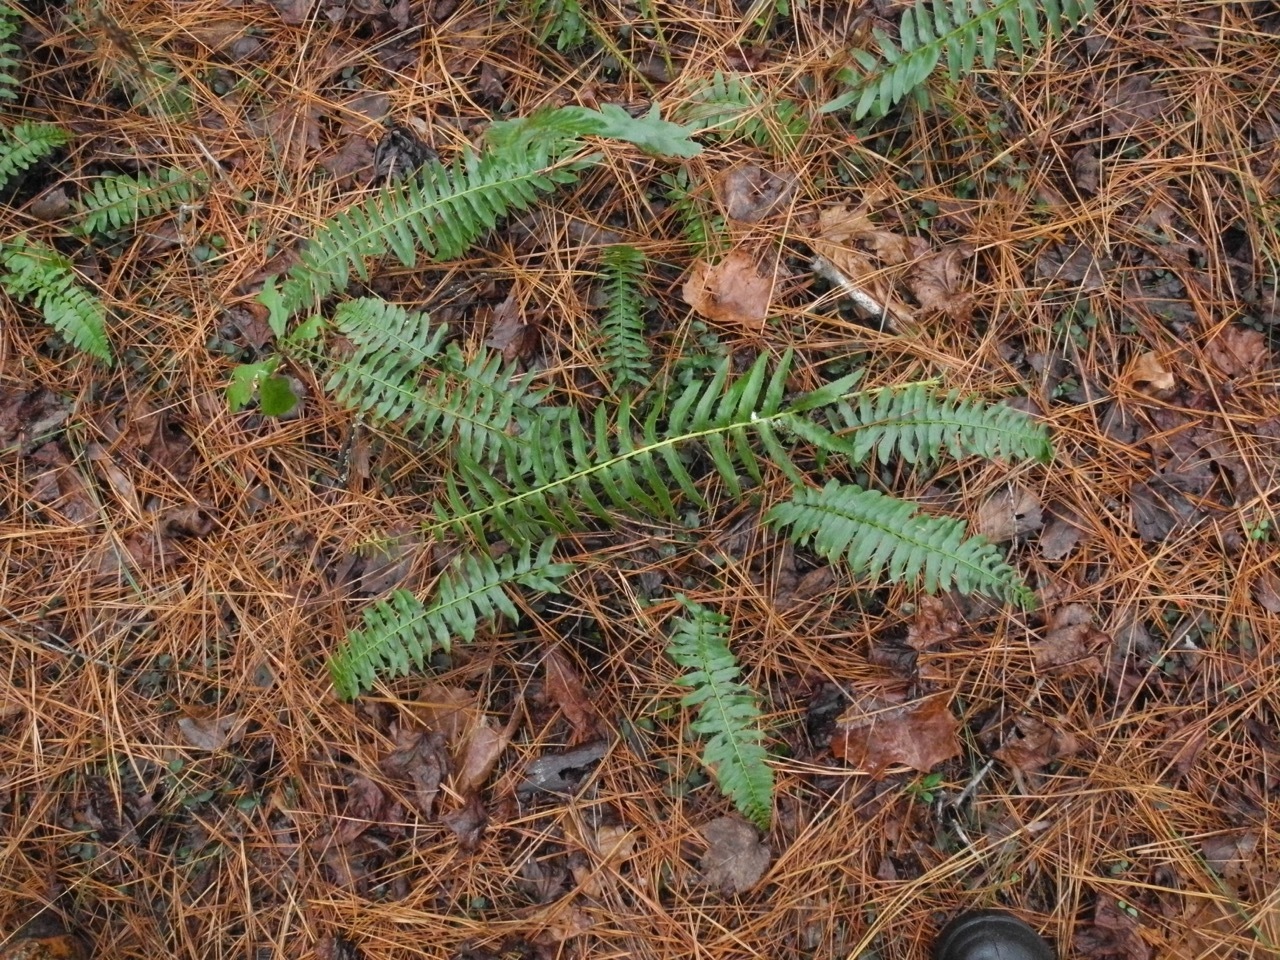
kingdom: Plantae
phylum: Tracheophyta
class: Polypodiopsida
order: Polypodiales
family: Dryopteridaceae
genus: Polystichum
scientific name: Polystichum acrostichoides
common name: Christmas fern
